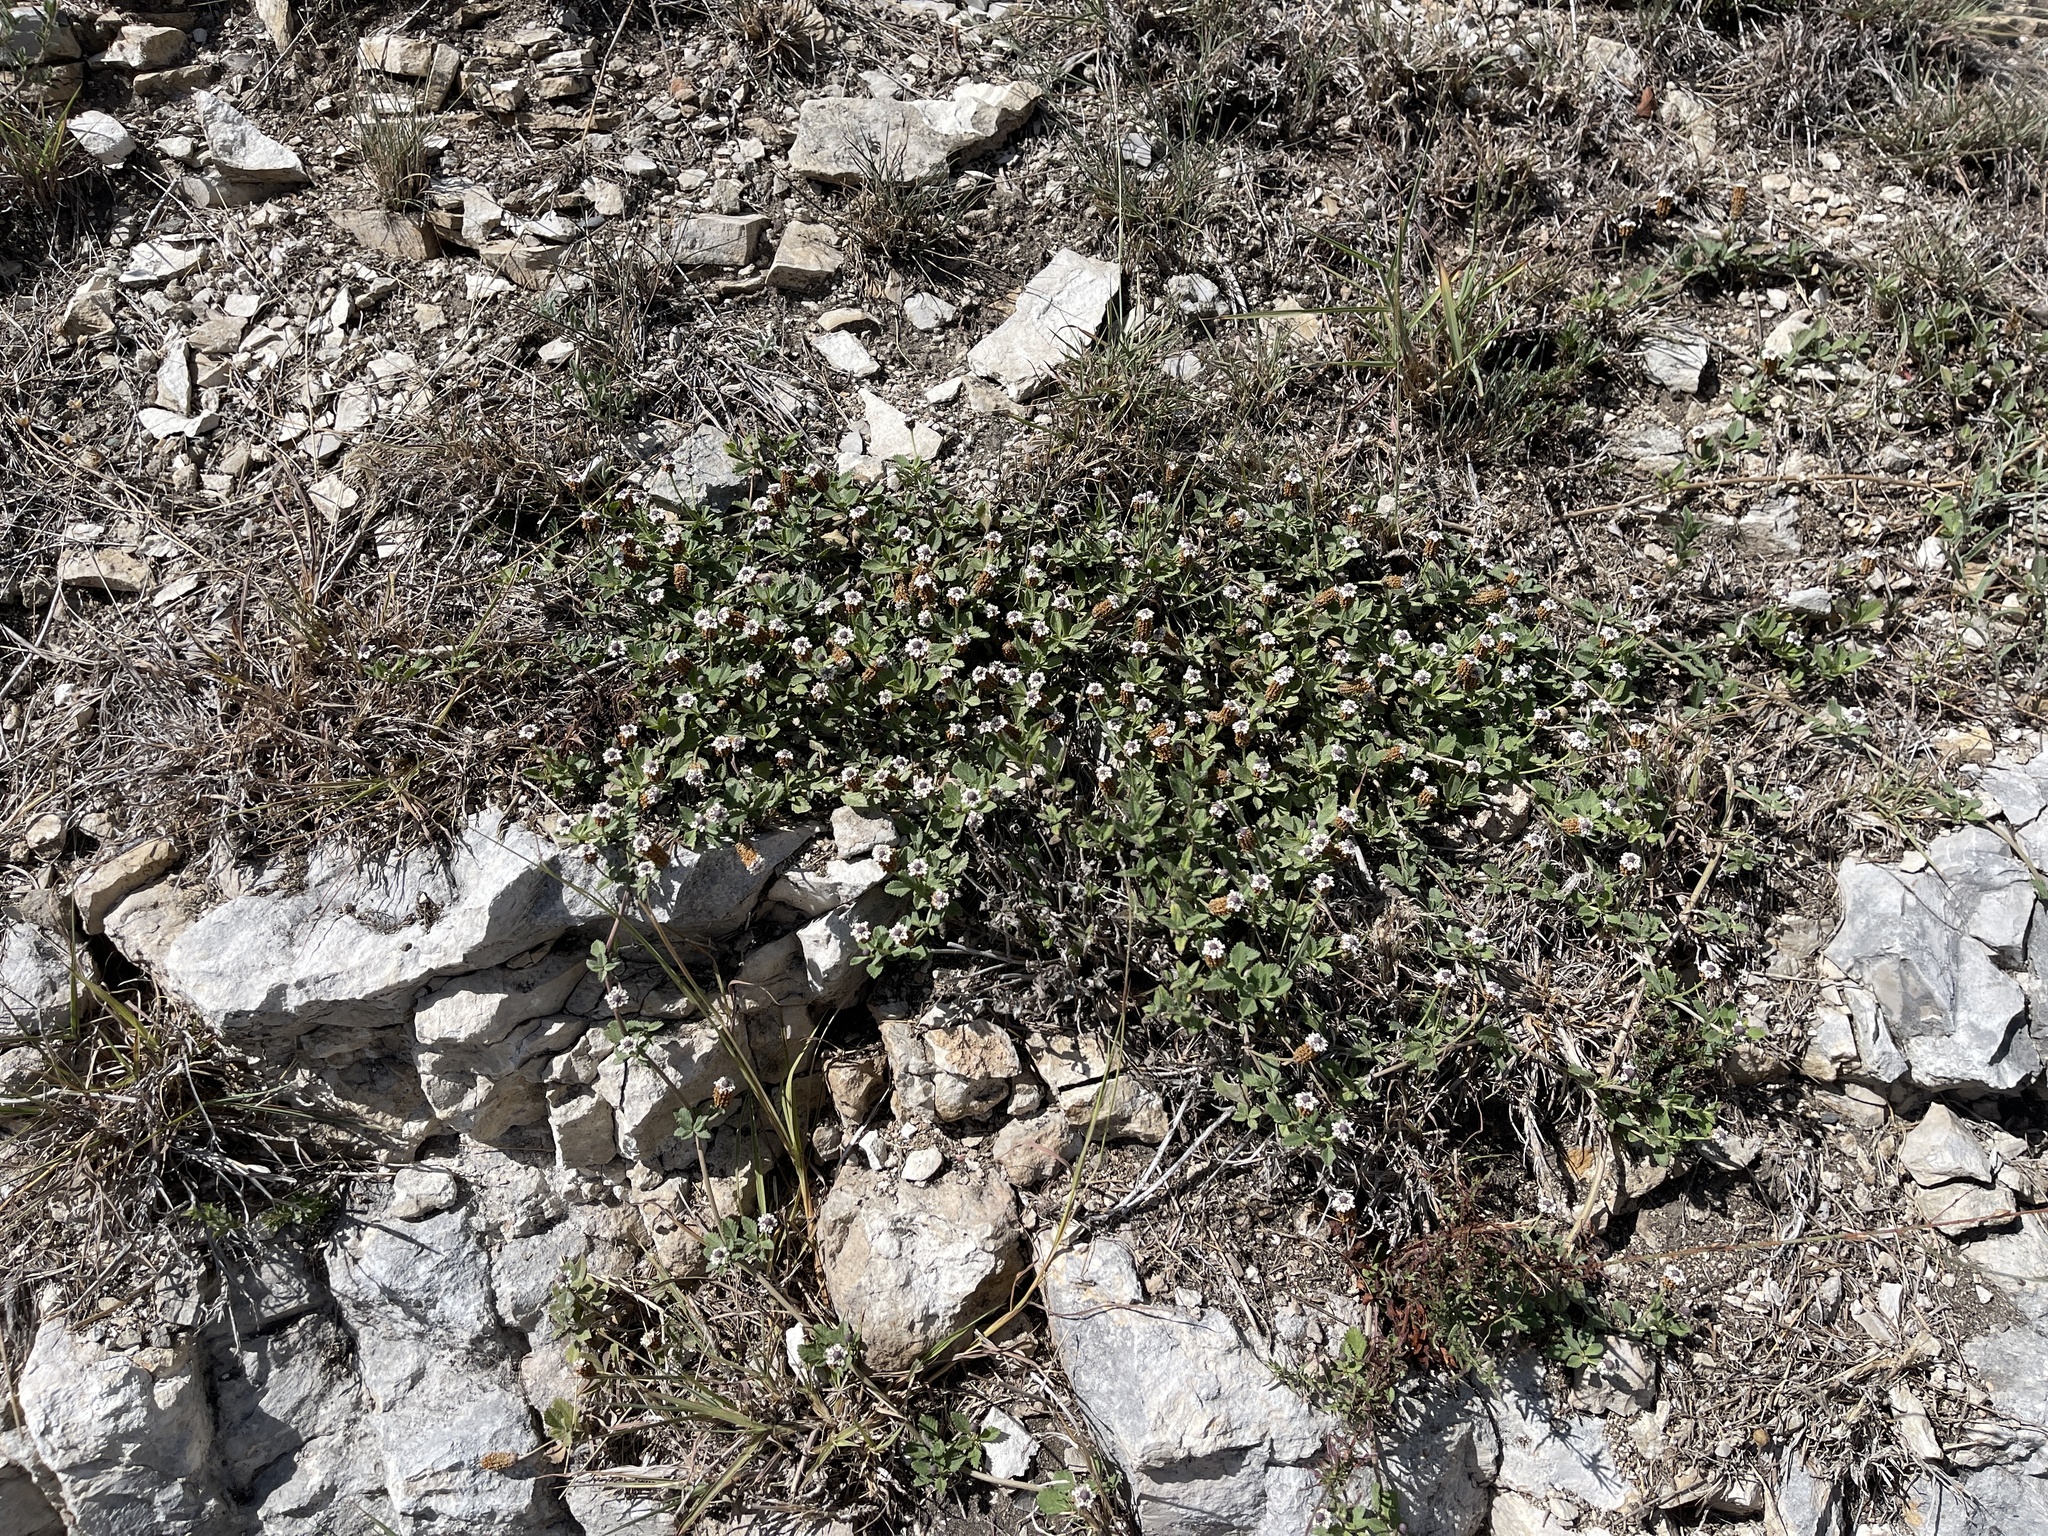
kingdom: Plantae
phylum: Tracheophyta
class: Magnoliopsida
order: Lamiales
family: Verbenaceae
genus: Phyla
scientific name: Phyla nodiflora
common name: Frogfruit
